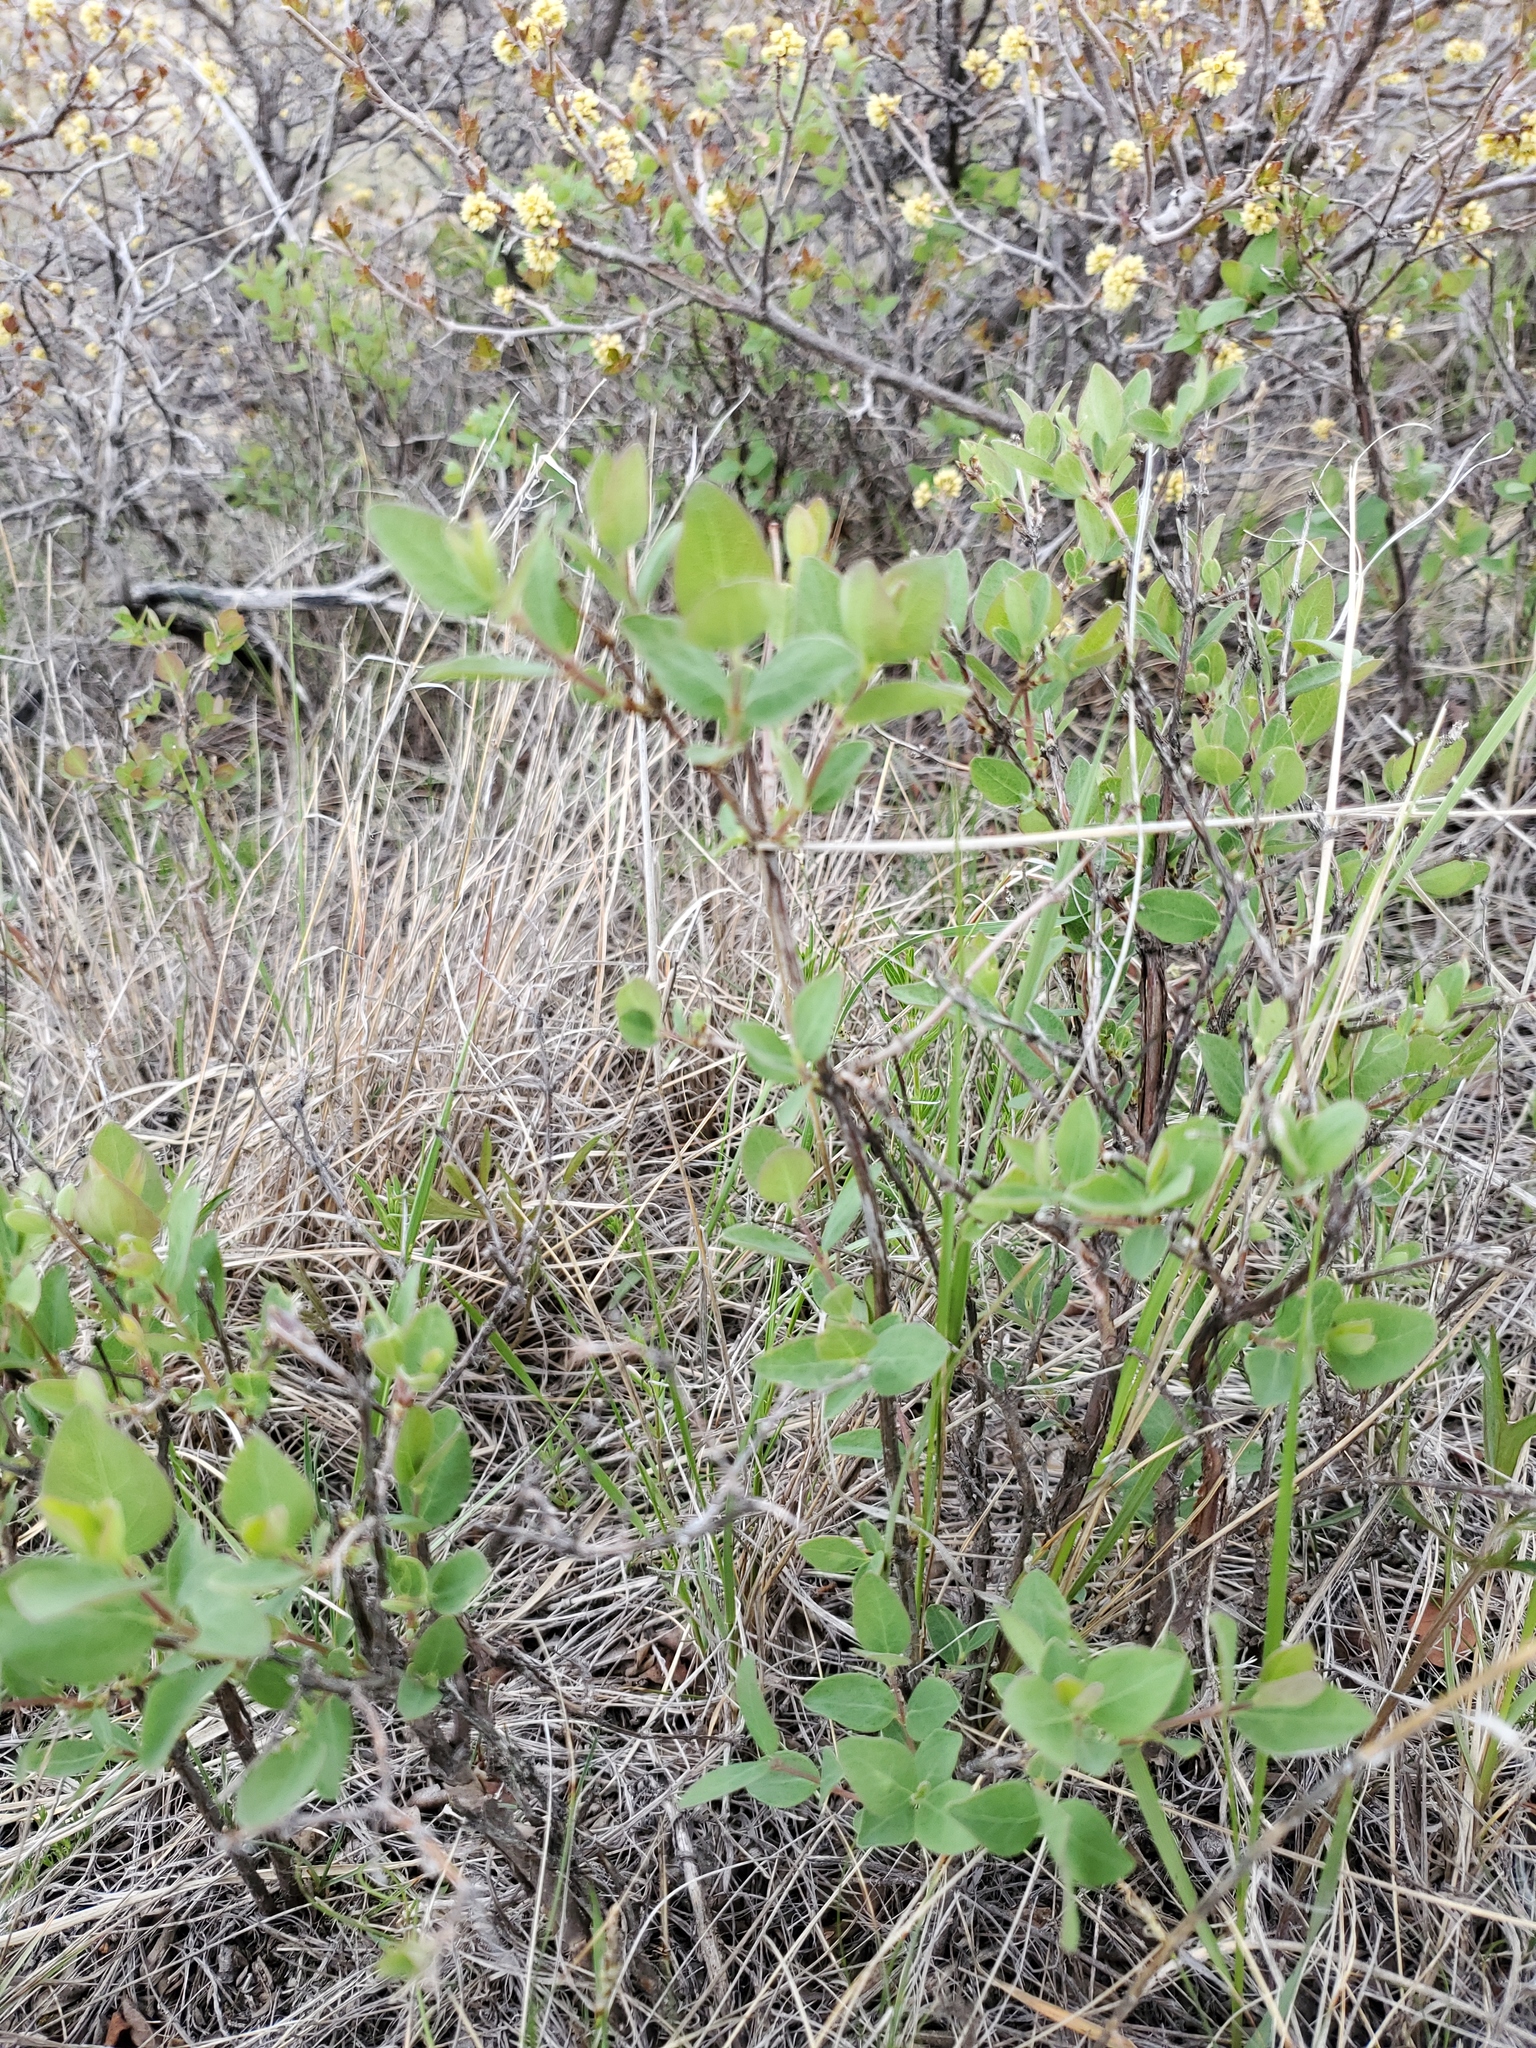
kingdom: Plantae
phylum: Tracheophyta
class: Magnoliopsida
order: Dipsacales
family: Caprifoliaceae
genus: Symphoricarpos
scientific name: Symphoricarpos occidentalis
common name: Wolfberry
